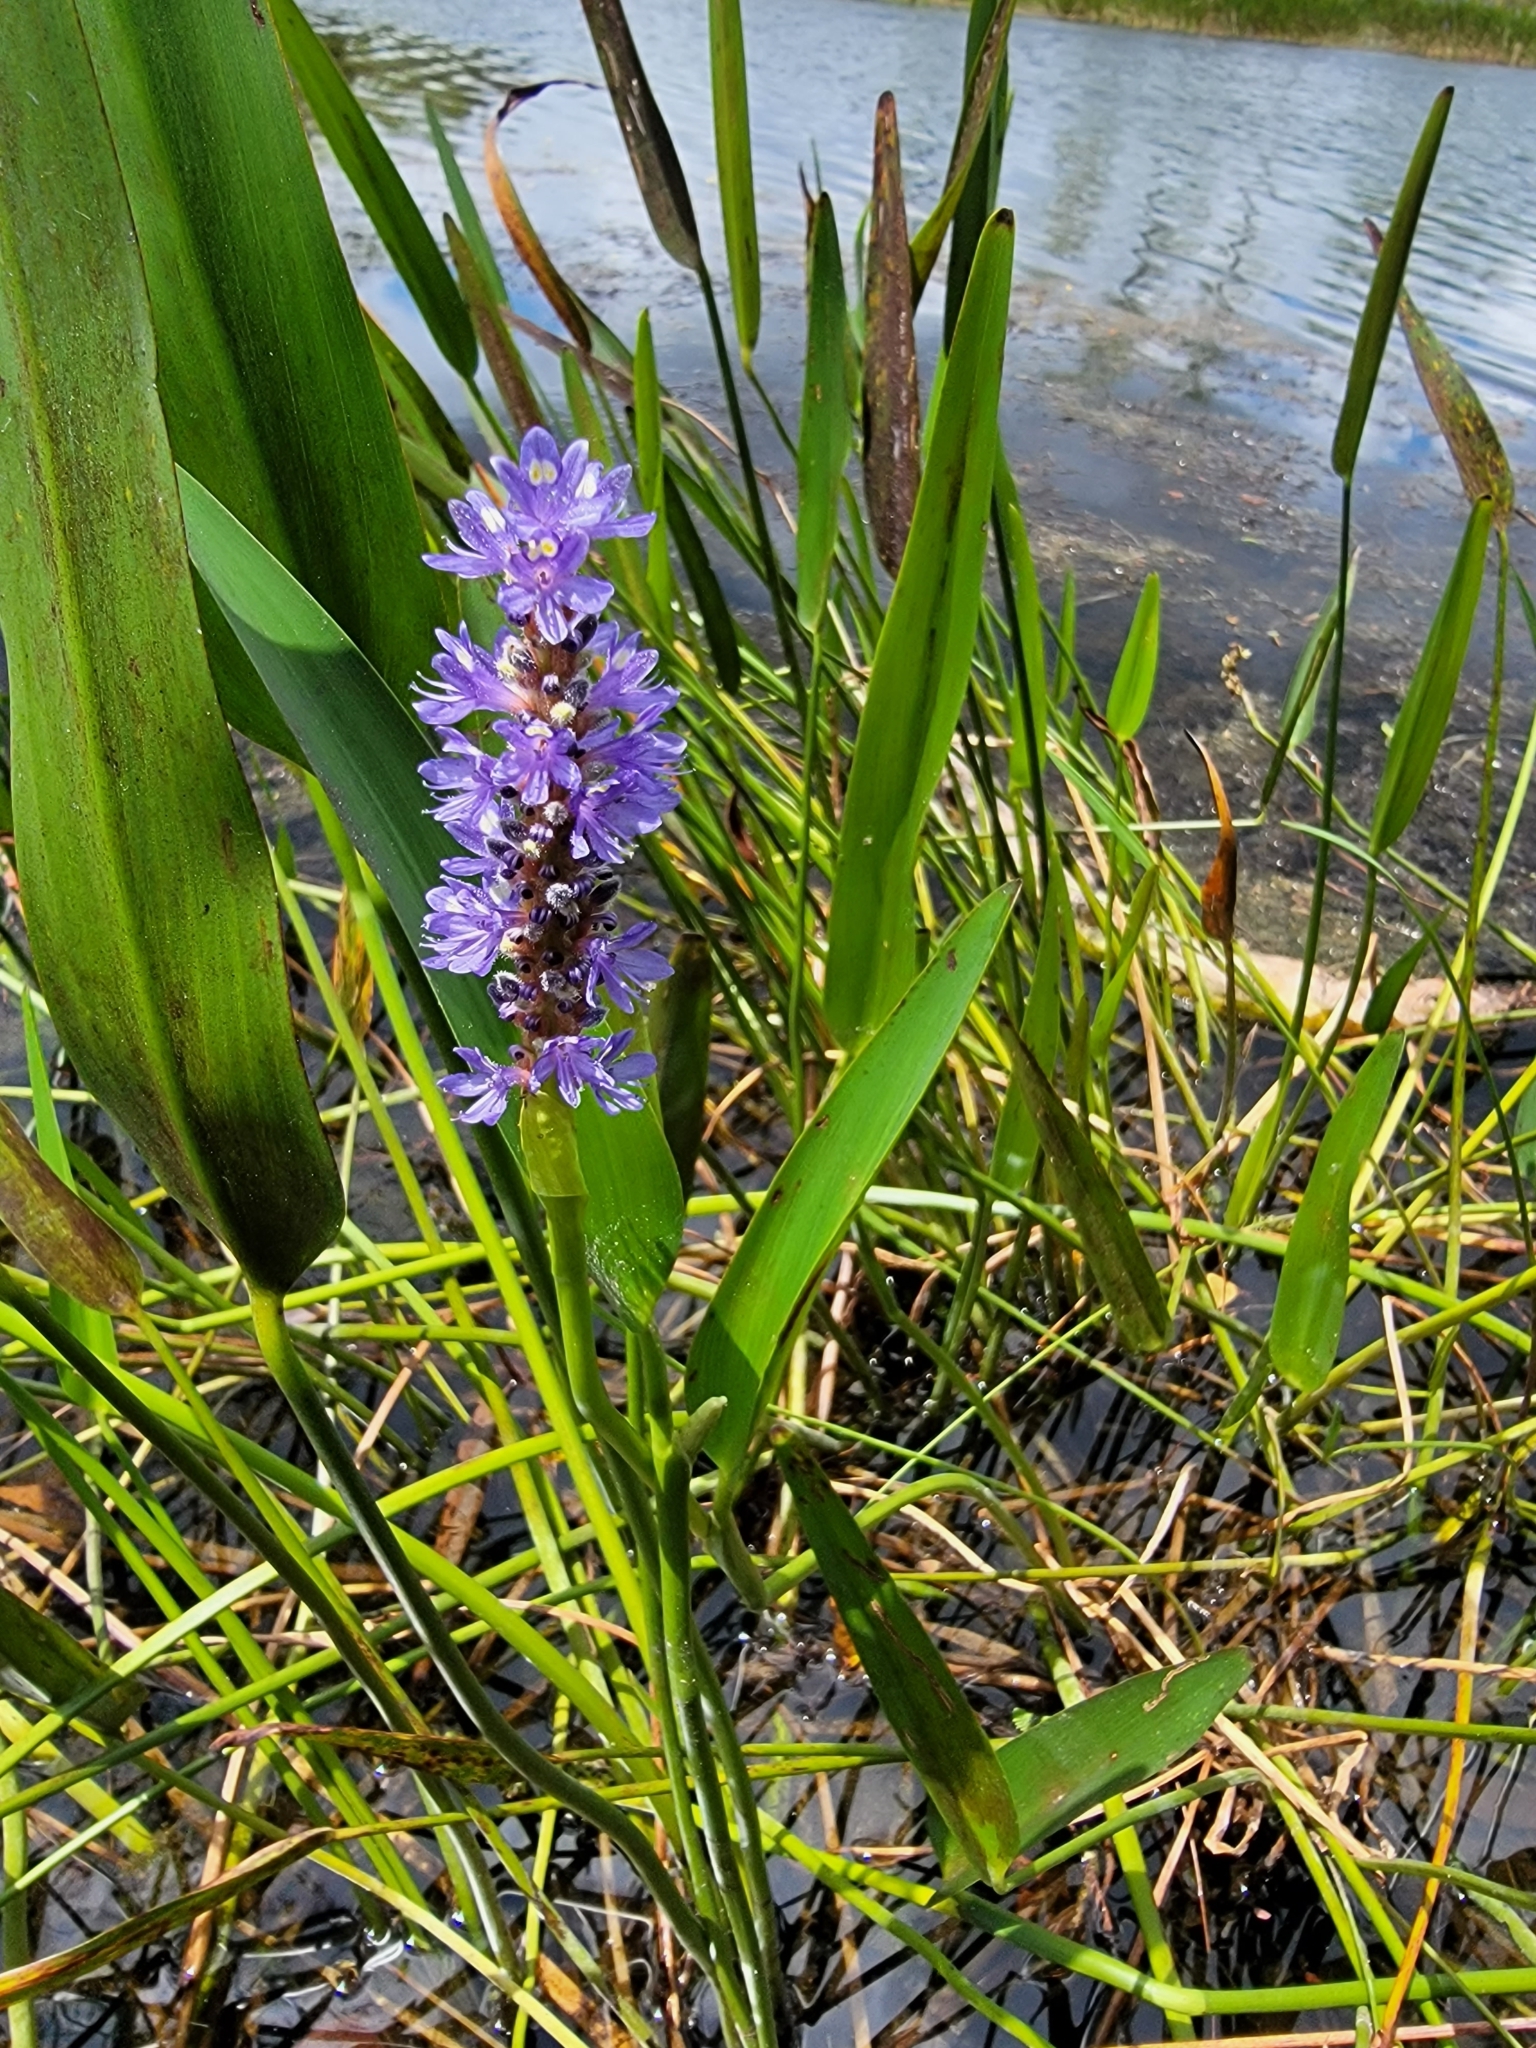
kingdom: Plantae
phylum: Tracheophyta
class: Liliopsida
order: Commelinales
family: Pontederiaceae
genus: Pontederia
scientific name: Pontederia cordata
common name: Pickerelweed
